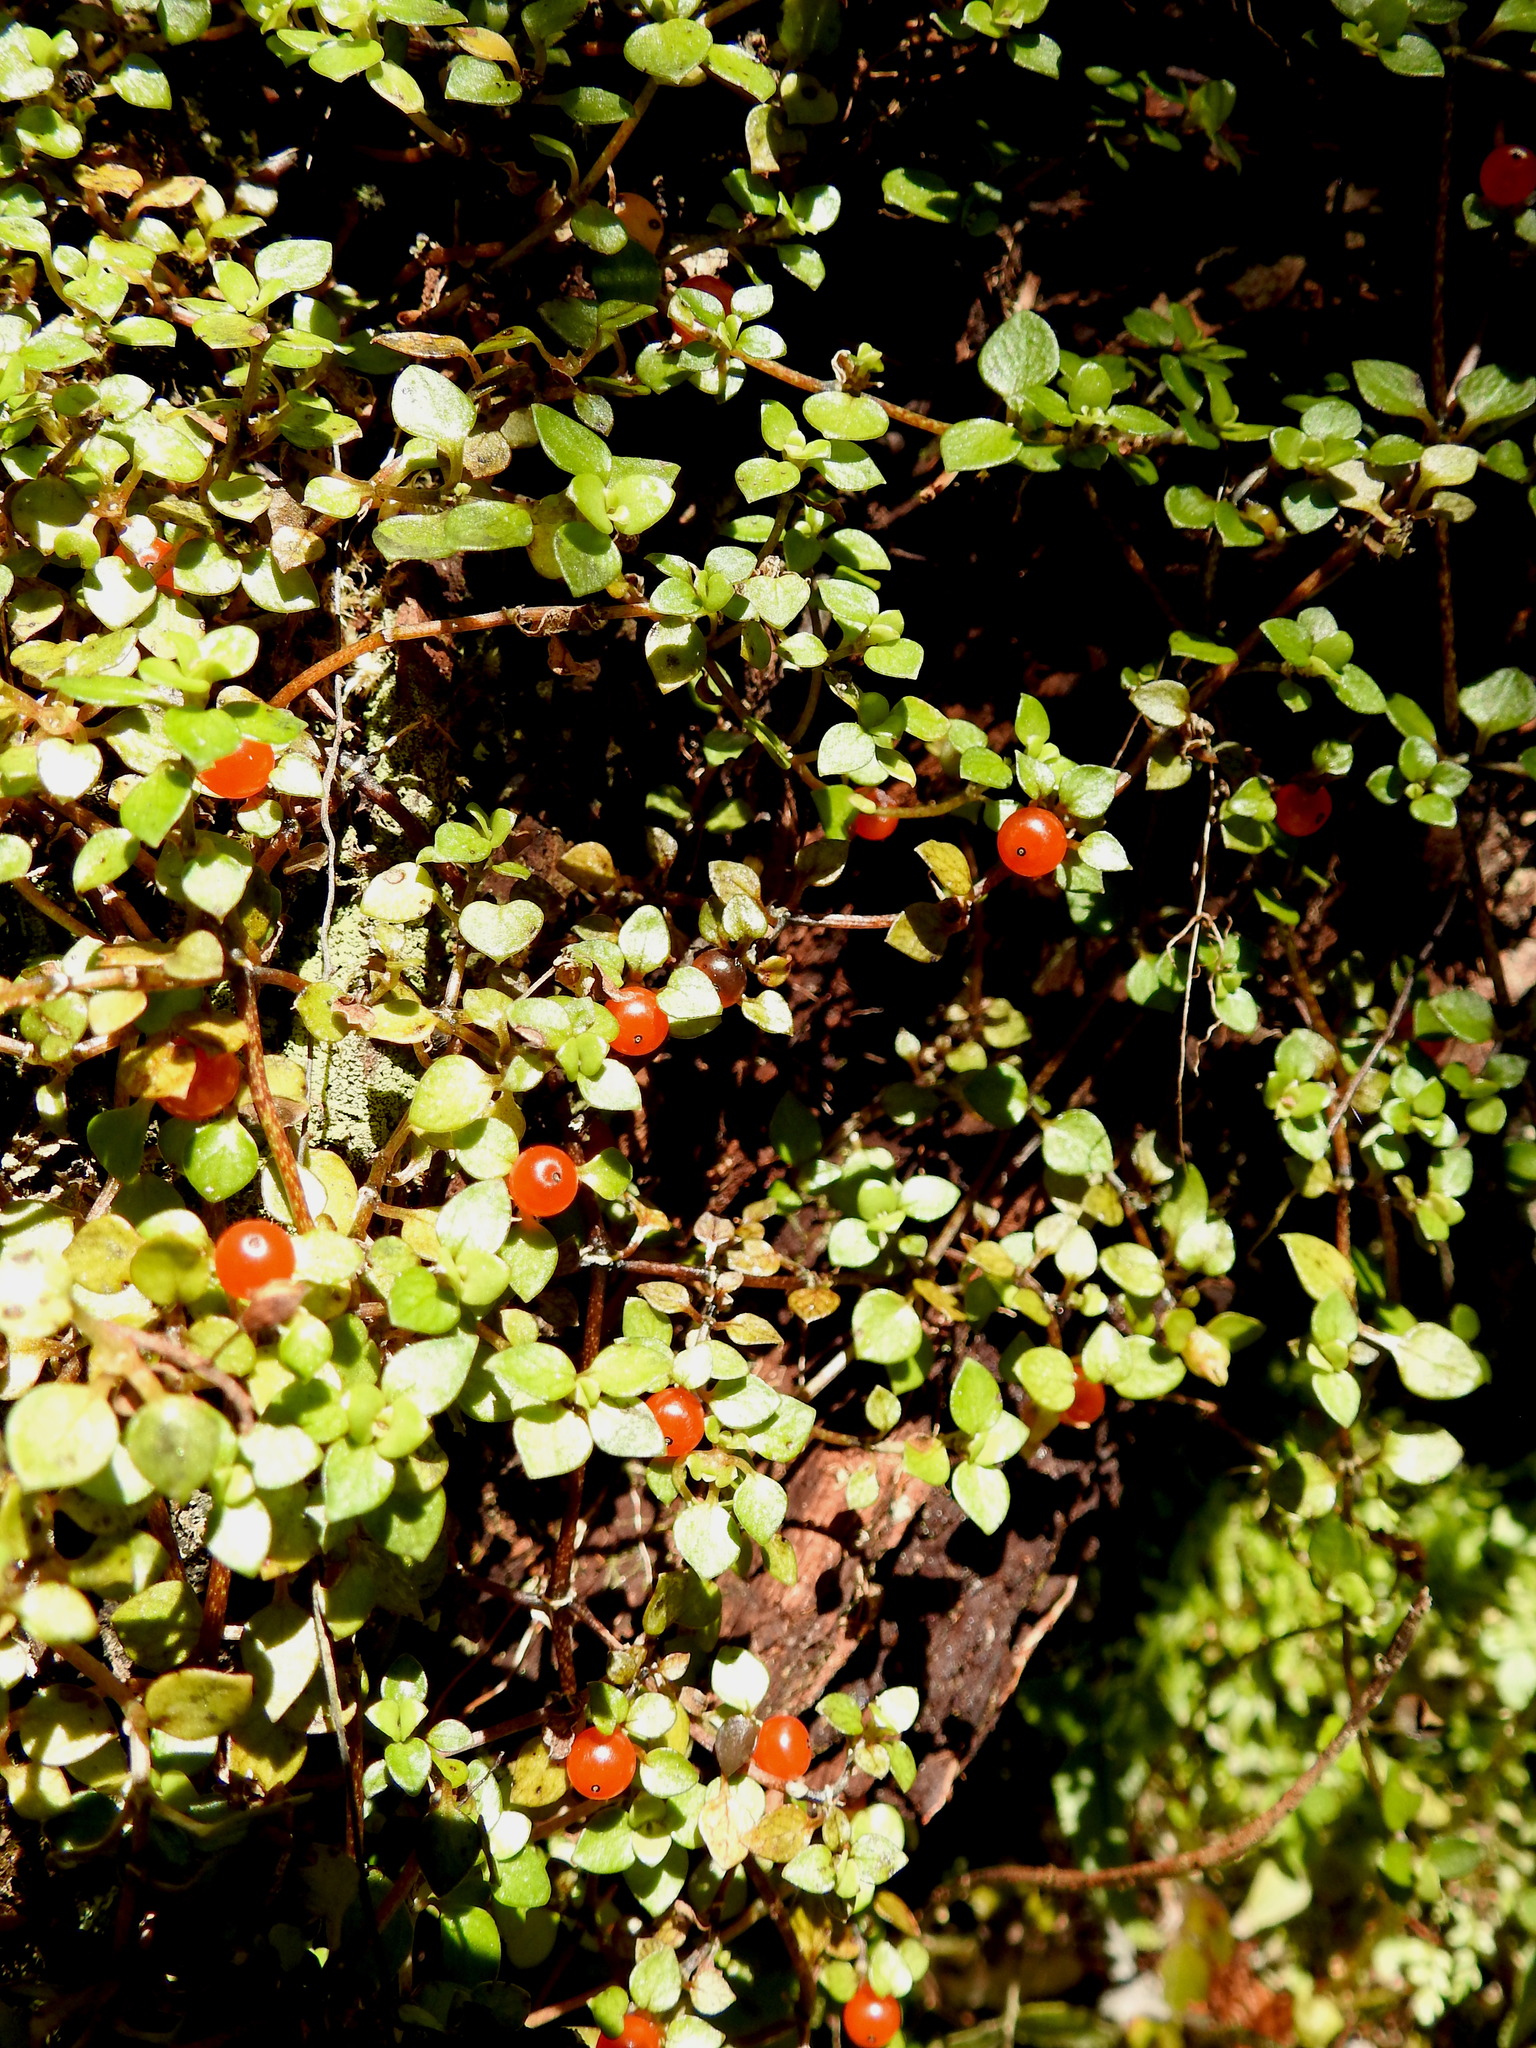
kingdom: Plantae
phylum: Tracheophyta
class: Magnoliopsida
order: Gentianales
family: Rubiaceae
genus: Nertera
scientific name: Nertera granadensis
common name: Beadplant
